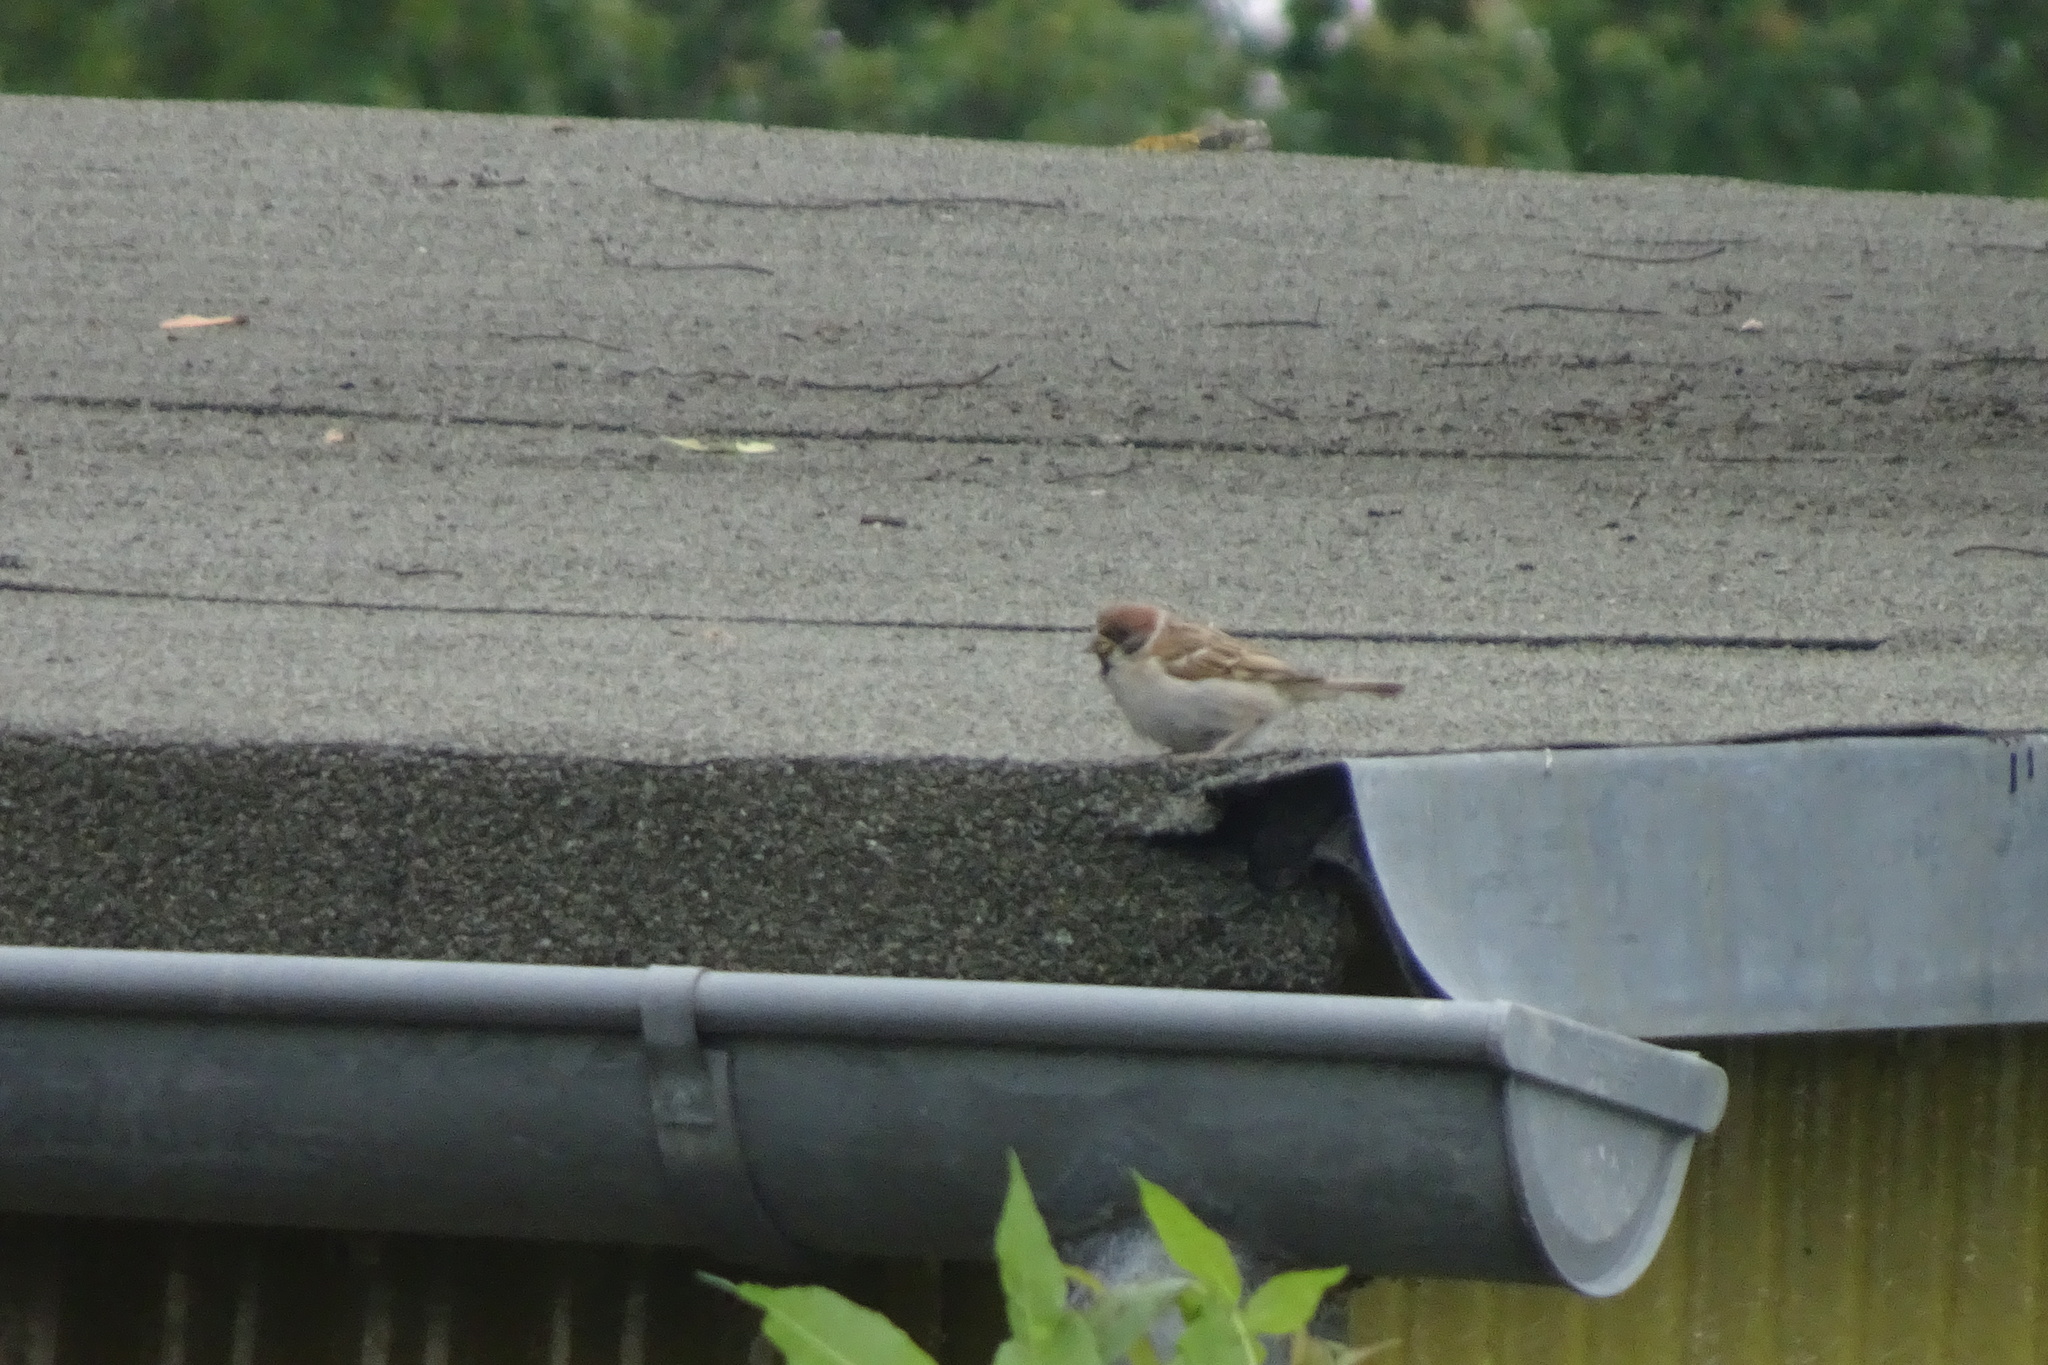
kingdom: Animalia
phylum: Chordata
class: Aves
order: Passeriformes
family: Passeridae
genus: Passer
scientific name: Passer montanus
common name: Eurasian tree sparrow
